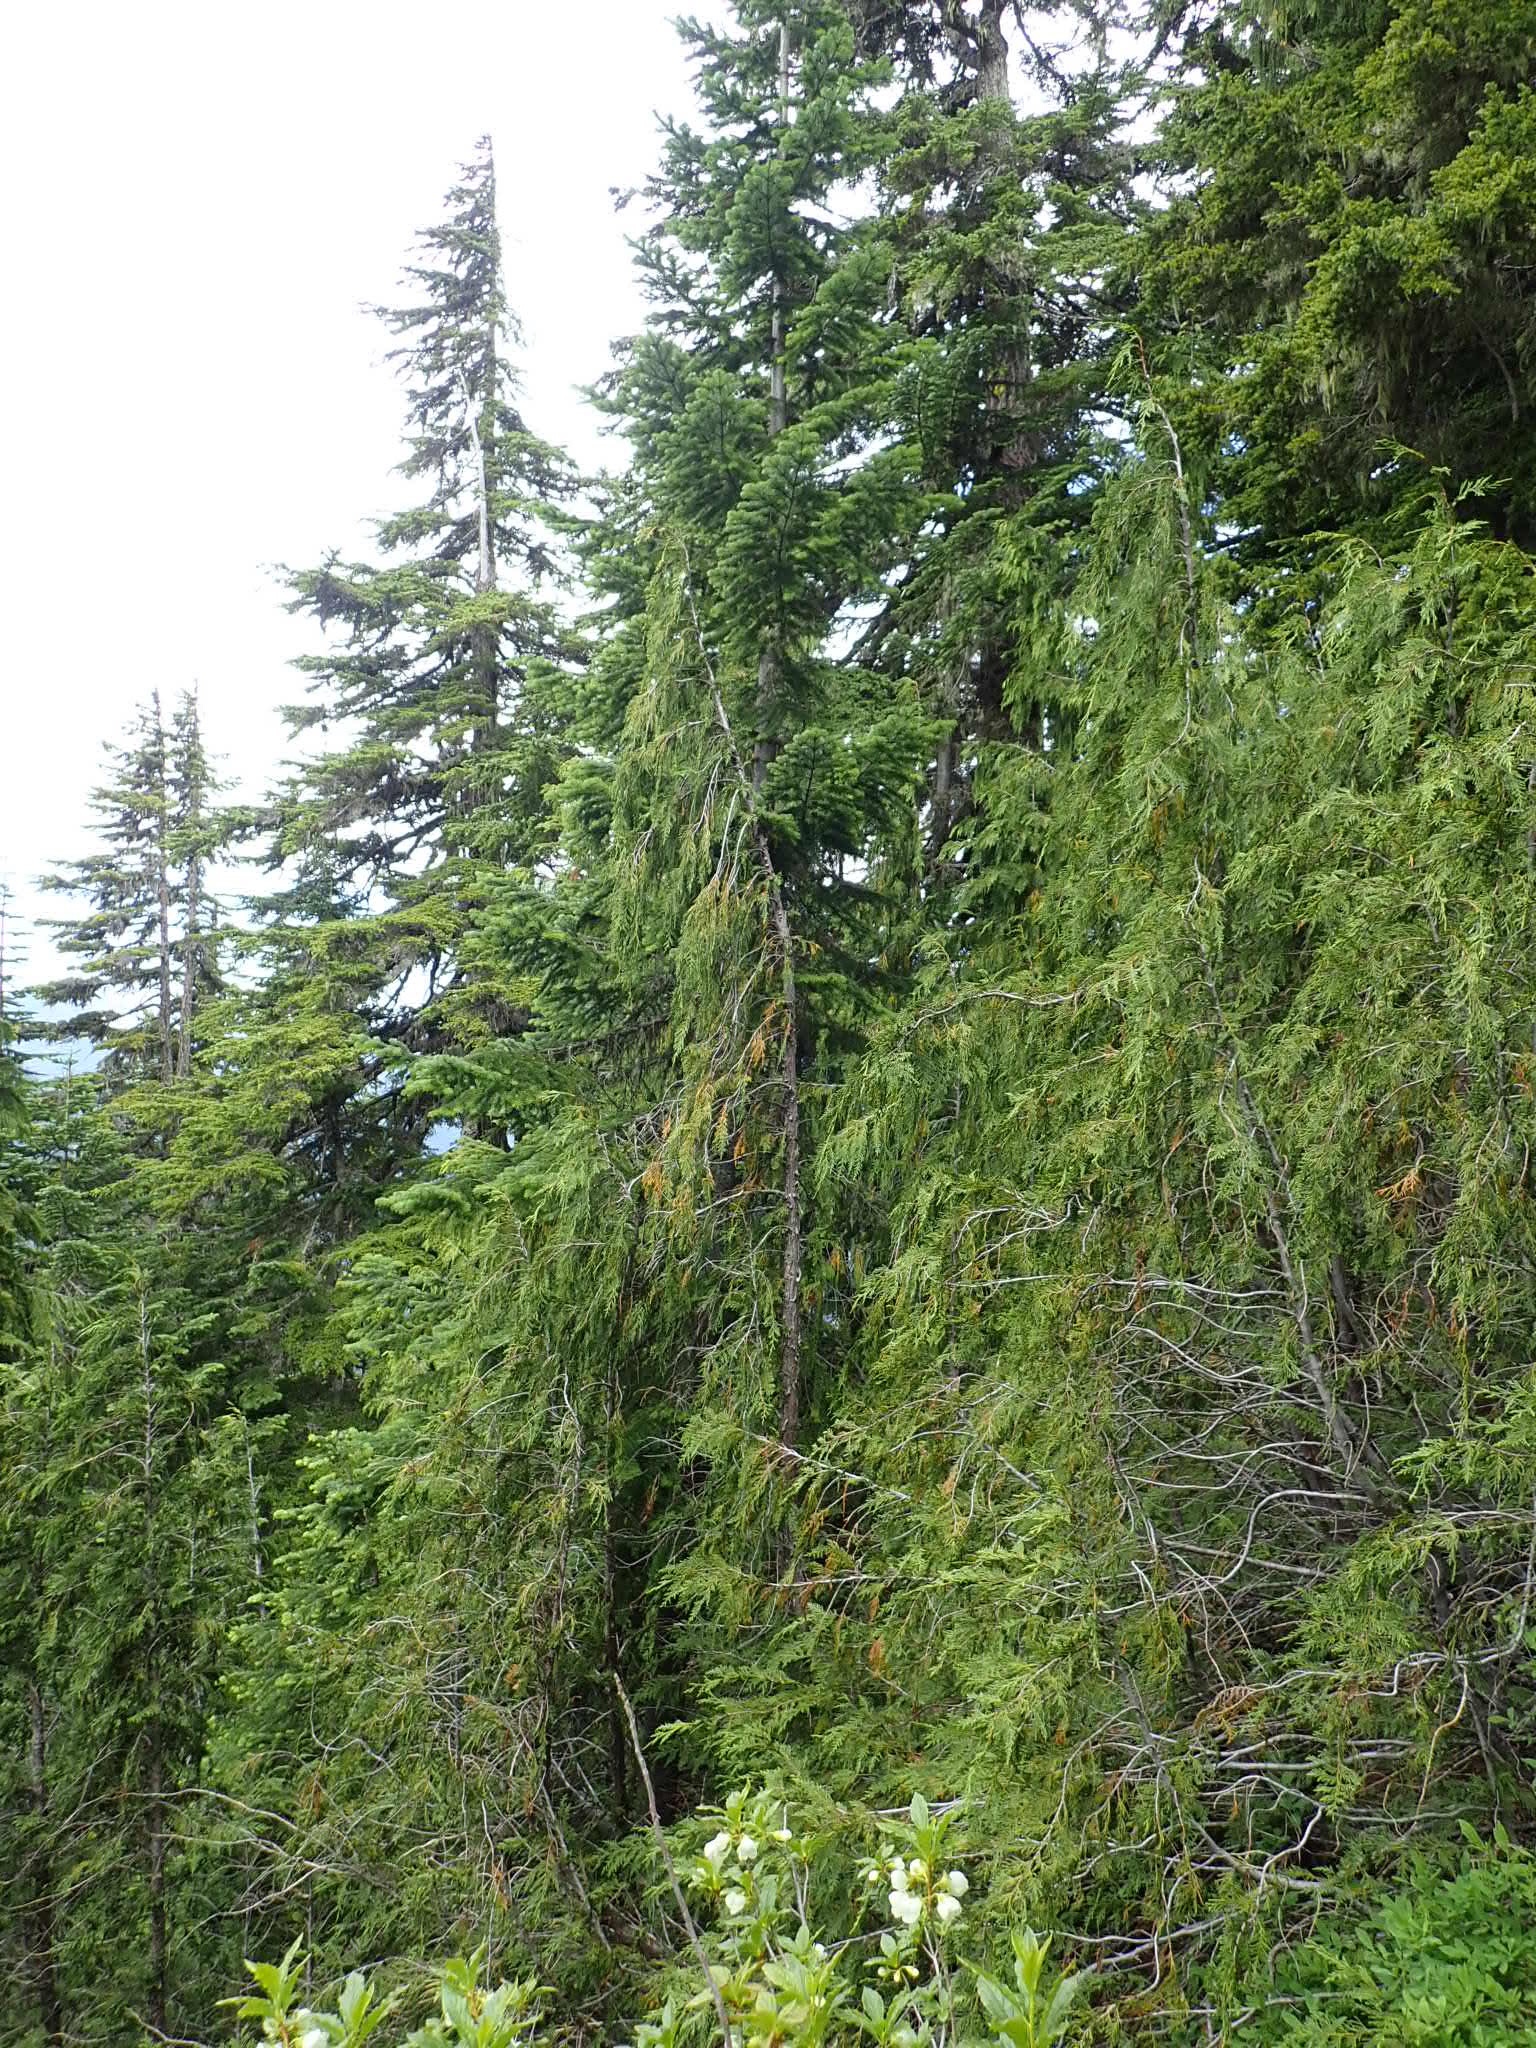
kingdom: Plantae
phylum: Tracheophyta
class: Pinopsida
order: Pinales
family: Cupressaceae
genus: Xanthocyparis
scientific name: Xanthocyparis nootkatensis
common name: Nootka cypress
